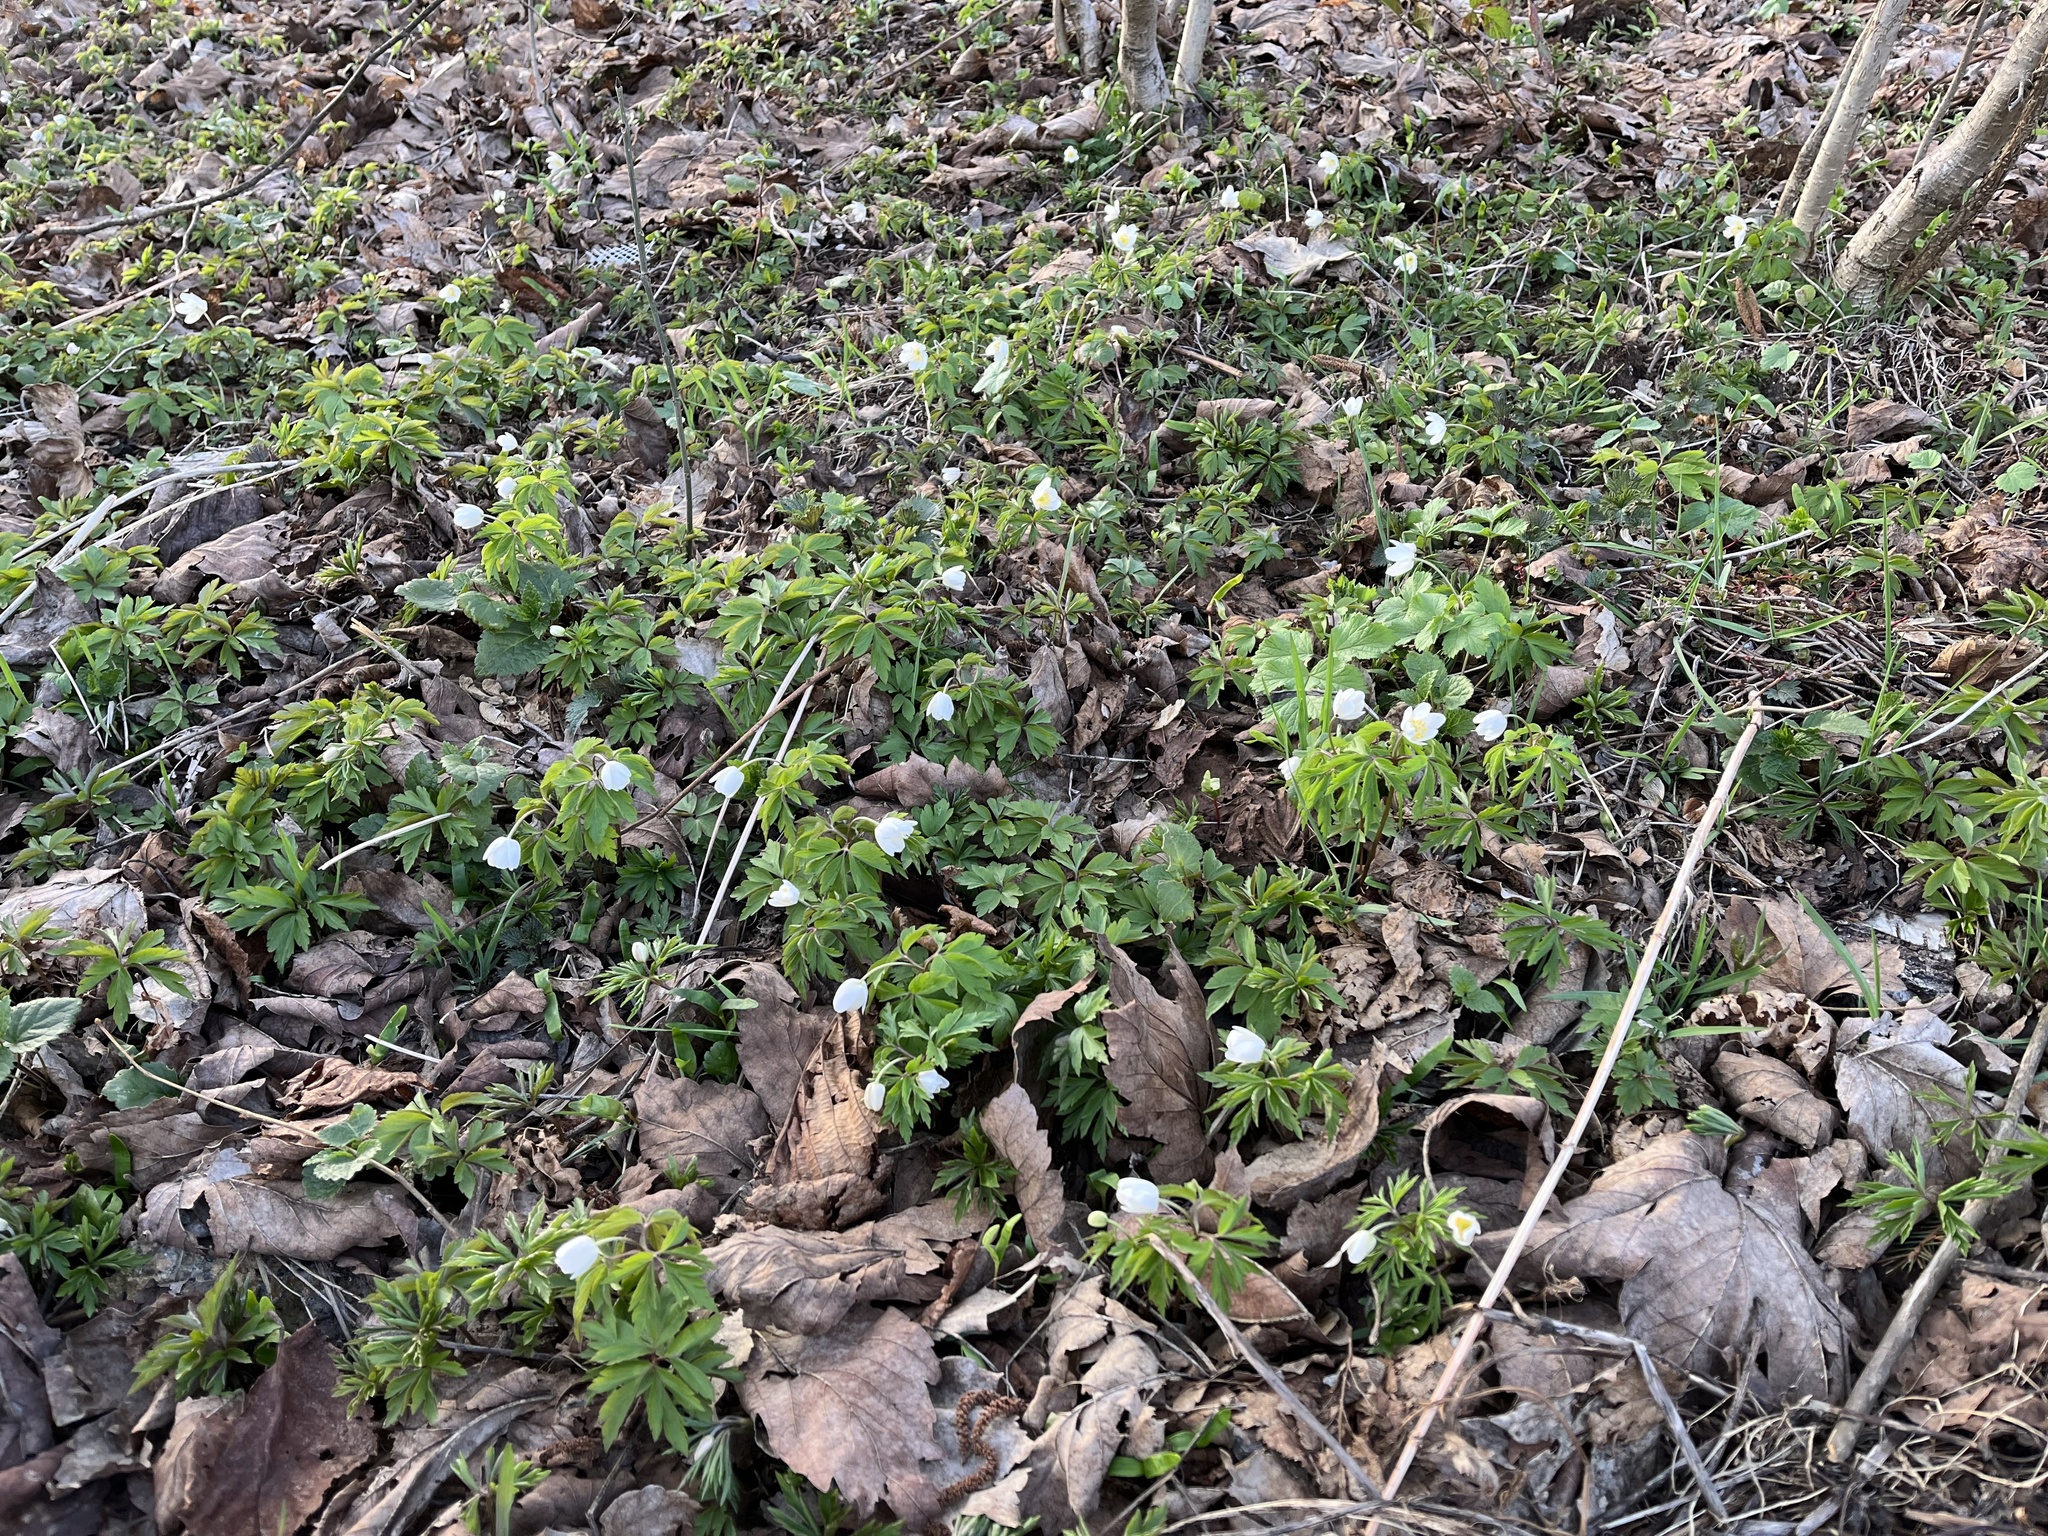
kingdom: Plantae
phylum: Tracheophyta
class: Magnoliopsida
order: Ranunculales
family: Ranunculaceae
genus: Anemone
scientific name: Anemone nemorosa
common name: Wood anemone
